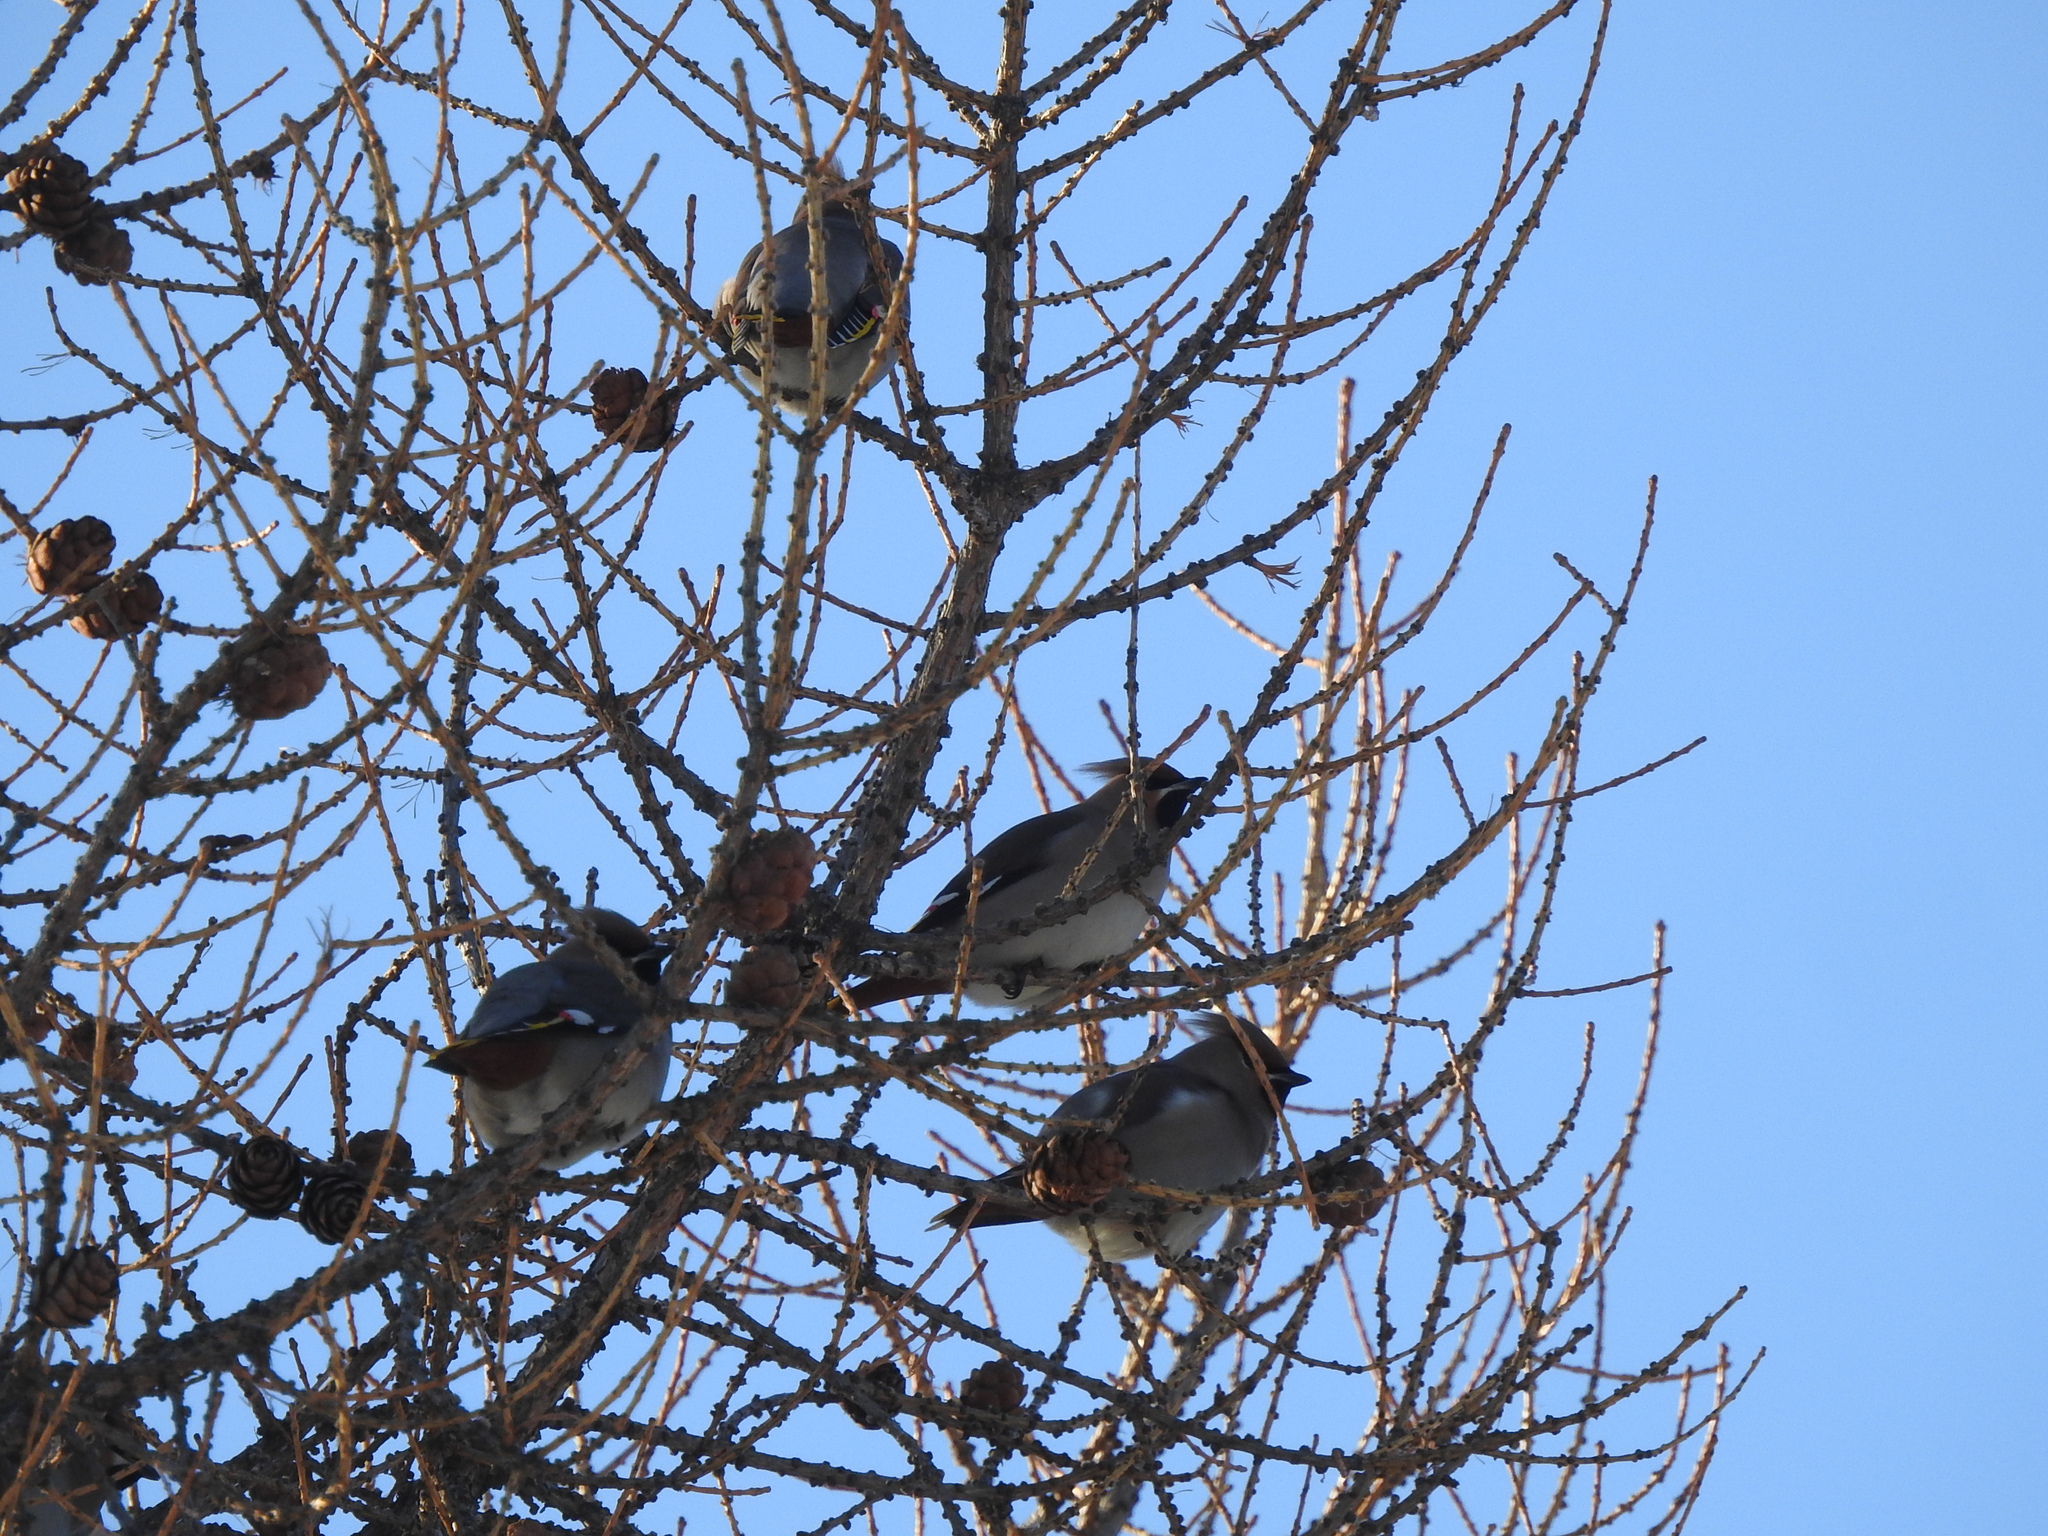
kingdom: Animalia
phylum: Chordata
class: Aves
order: Passeriformes
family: Bombycillidae
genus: Bombycilla
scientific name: Bombycilla garrulus
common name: Bohemian waxwing
